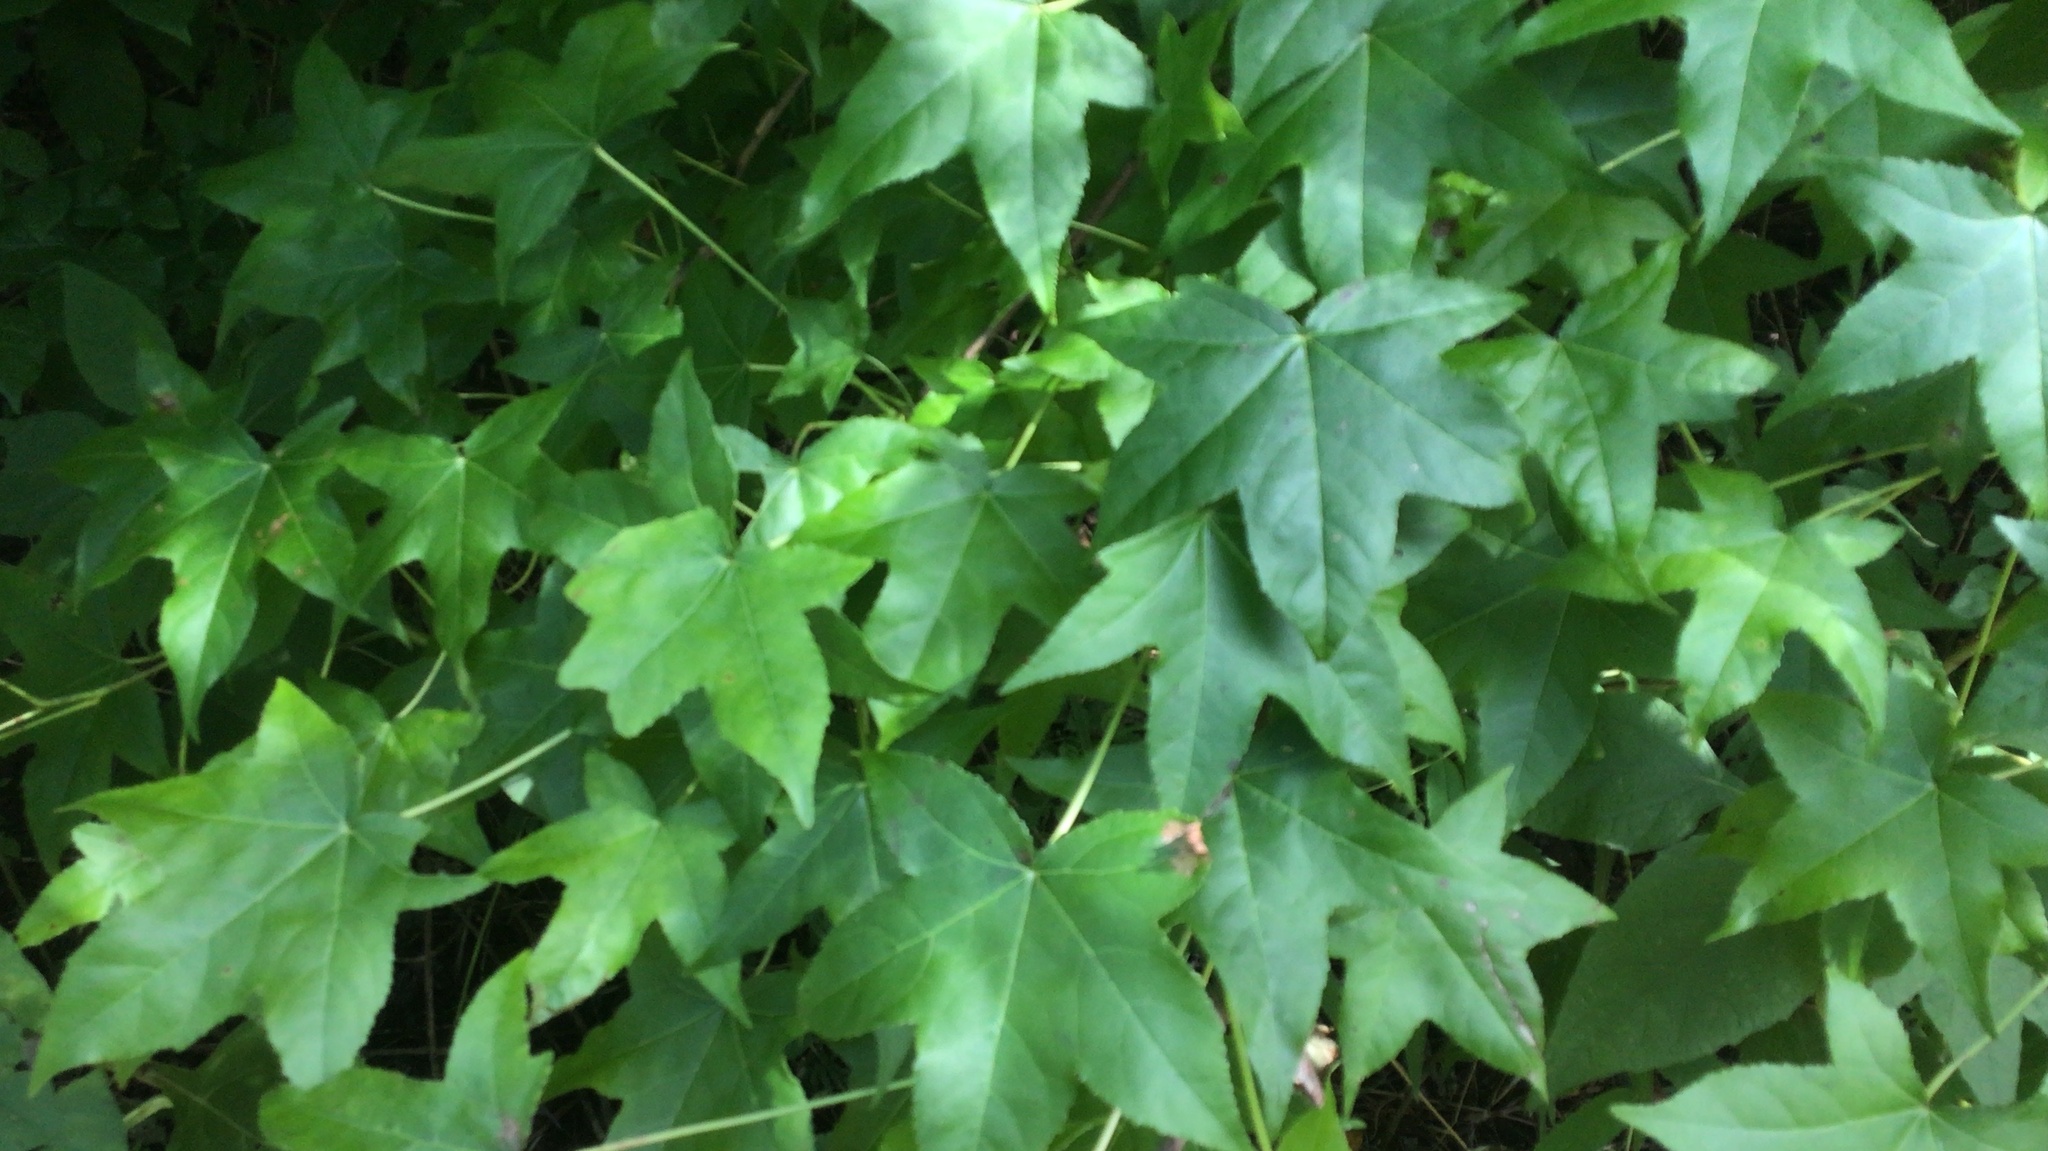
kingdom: Plantae
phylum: Tracheophyta
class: Magnoliopsida
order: Saxifragales
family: Altingiaceae
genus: Liquidambar
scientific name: Liquidambar styraciflua
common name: Sweet gum
